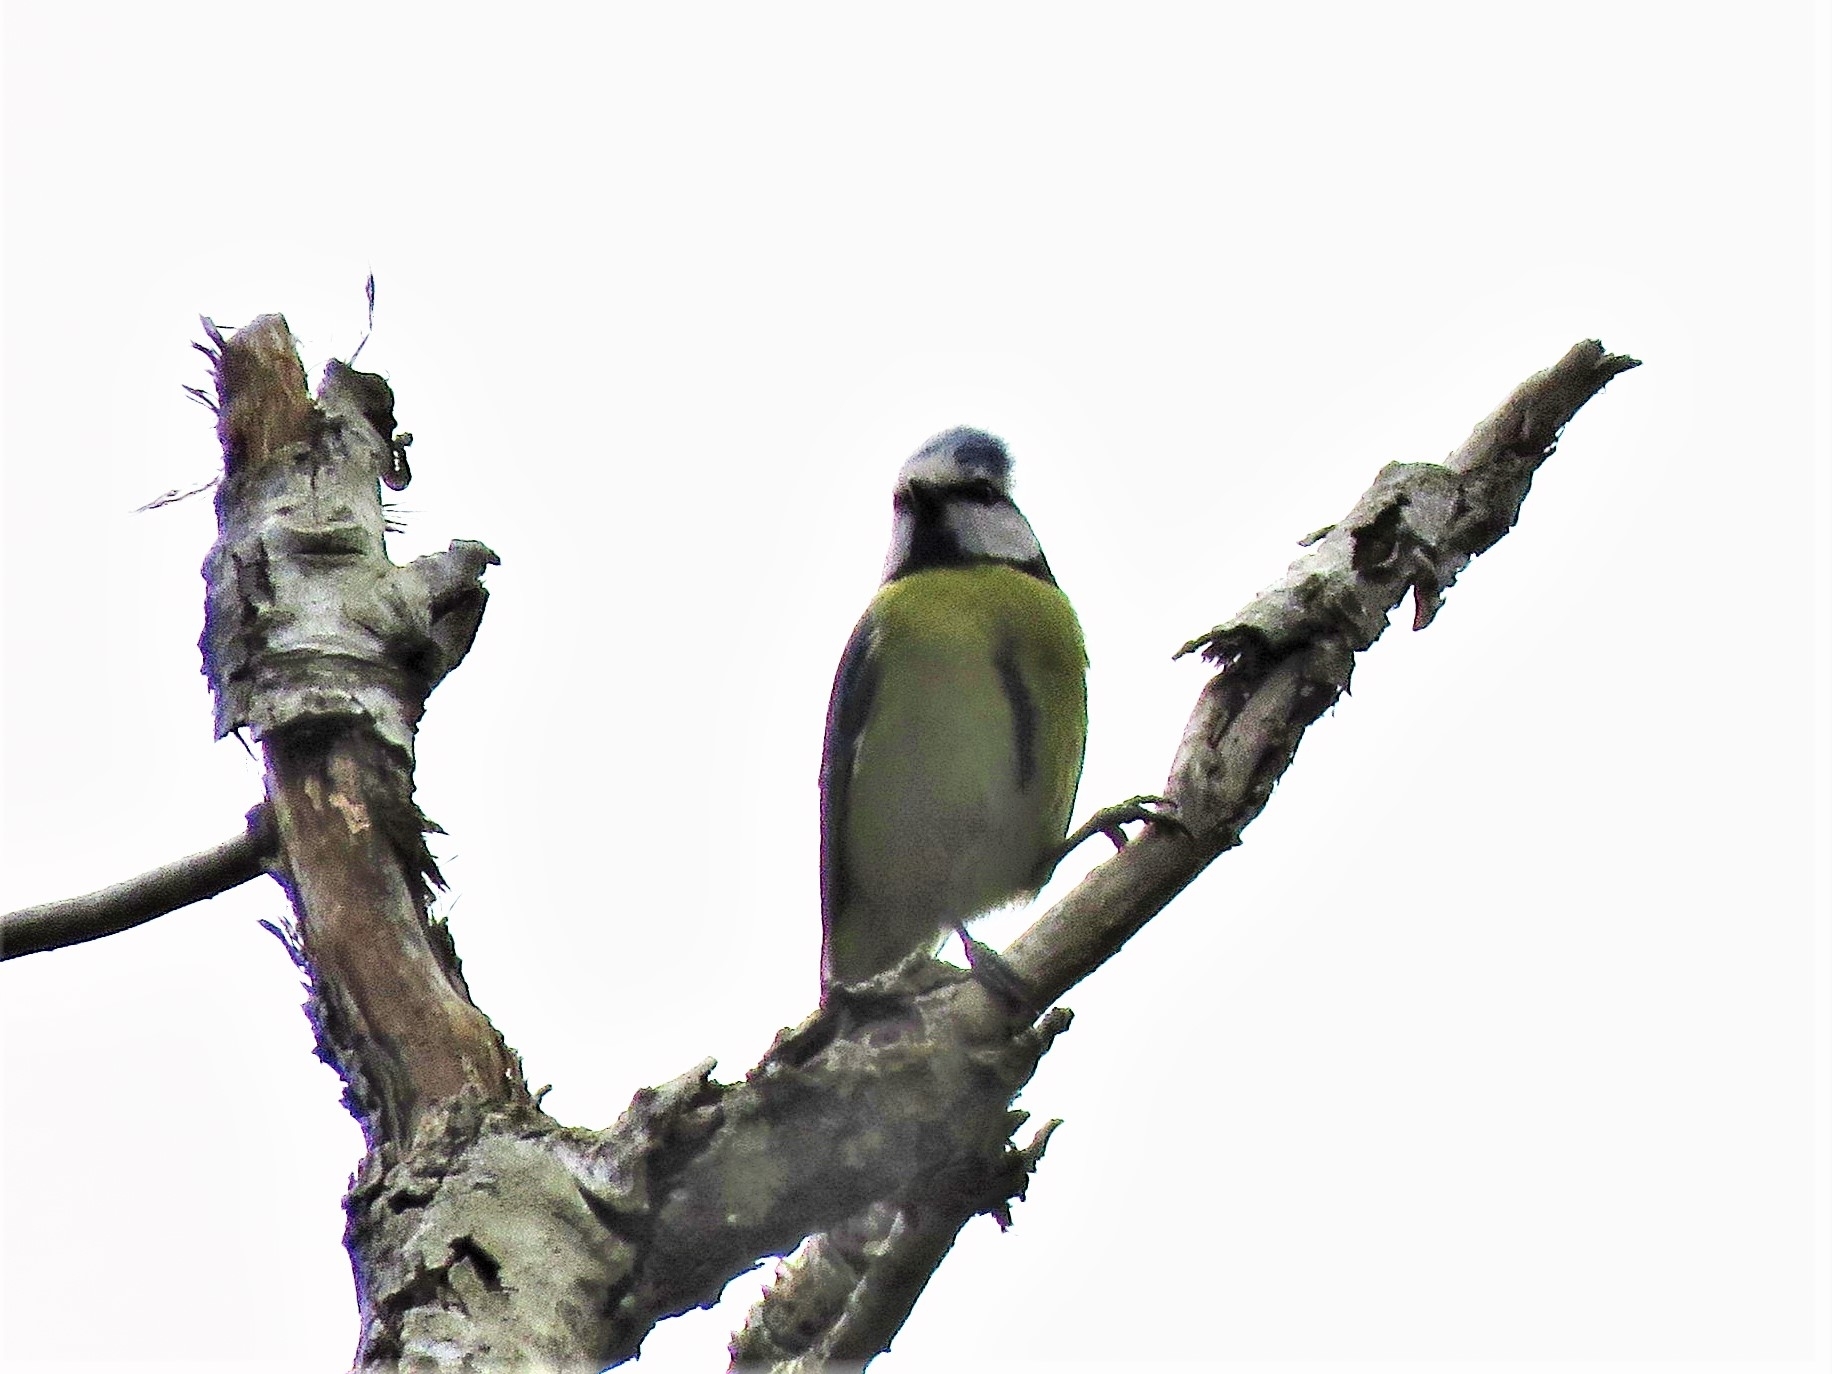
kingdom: Animalia
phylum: Chordata
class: Aves
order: Passeriformes
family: Paridae
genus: Cyanistes
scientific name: Cyanistes caeruleus
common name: Eurasian blue tit
